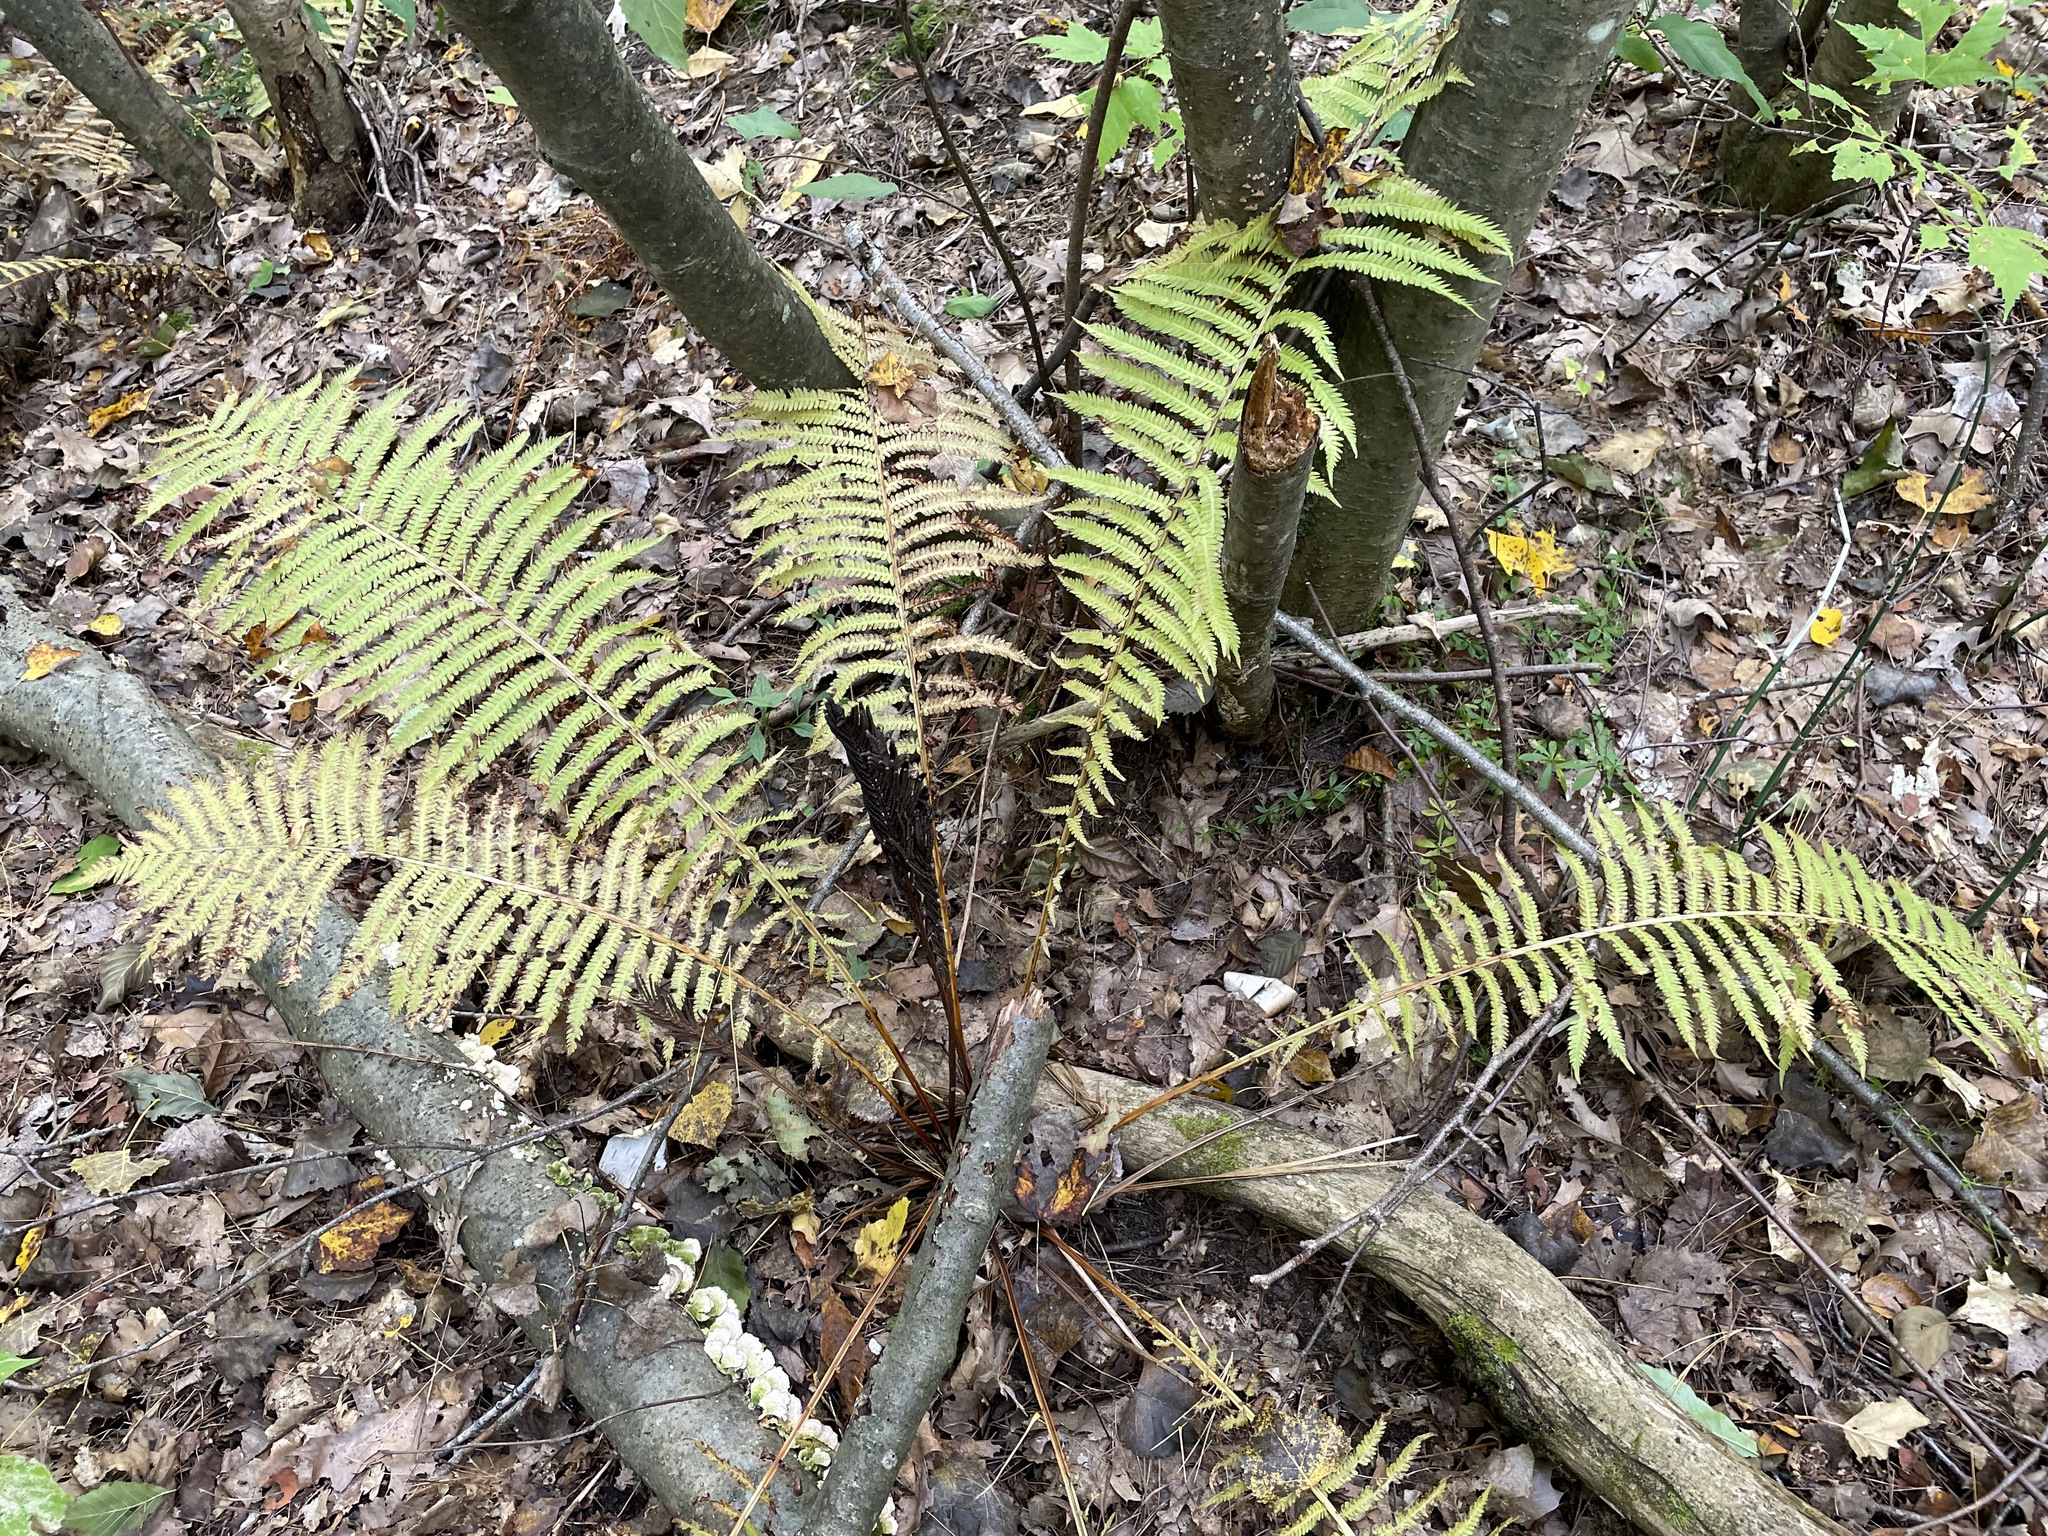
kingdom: Plantae
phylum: Tracheophyta
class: Polypodiopsida
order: Polypodiales
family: Onocleaceae
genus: Matteuccia
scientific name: Matteuccia struthiopteris
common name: Ostrich fern
